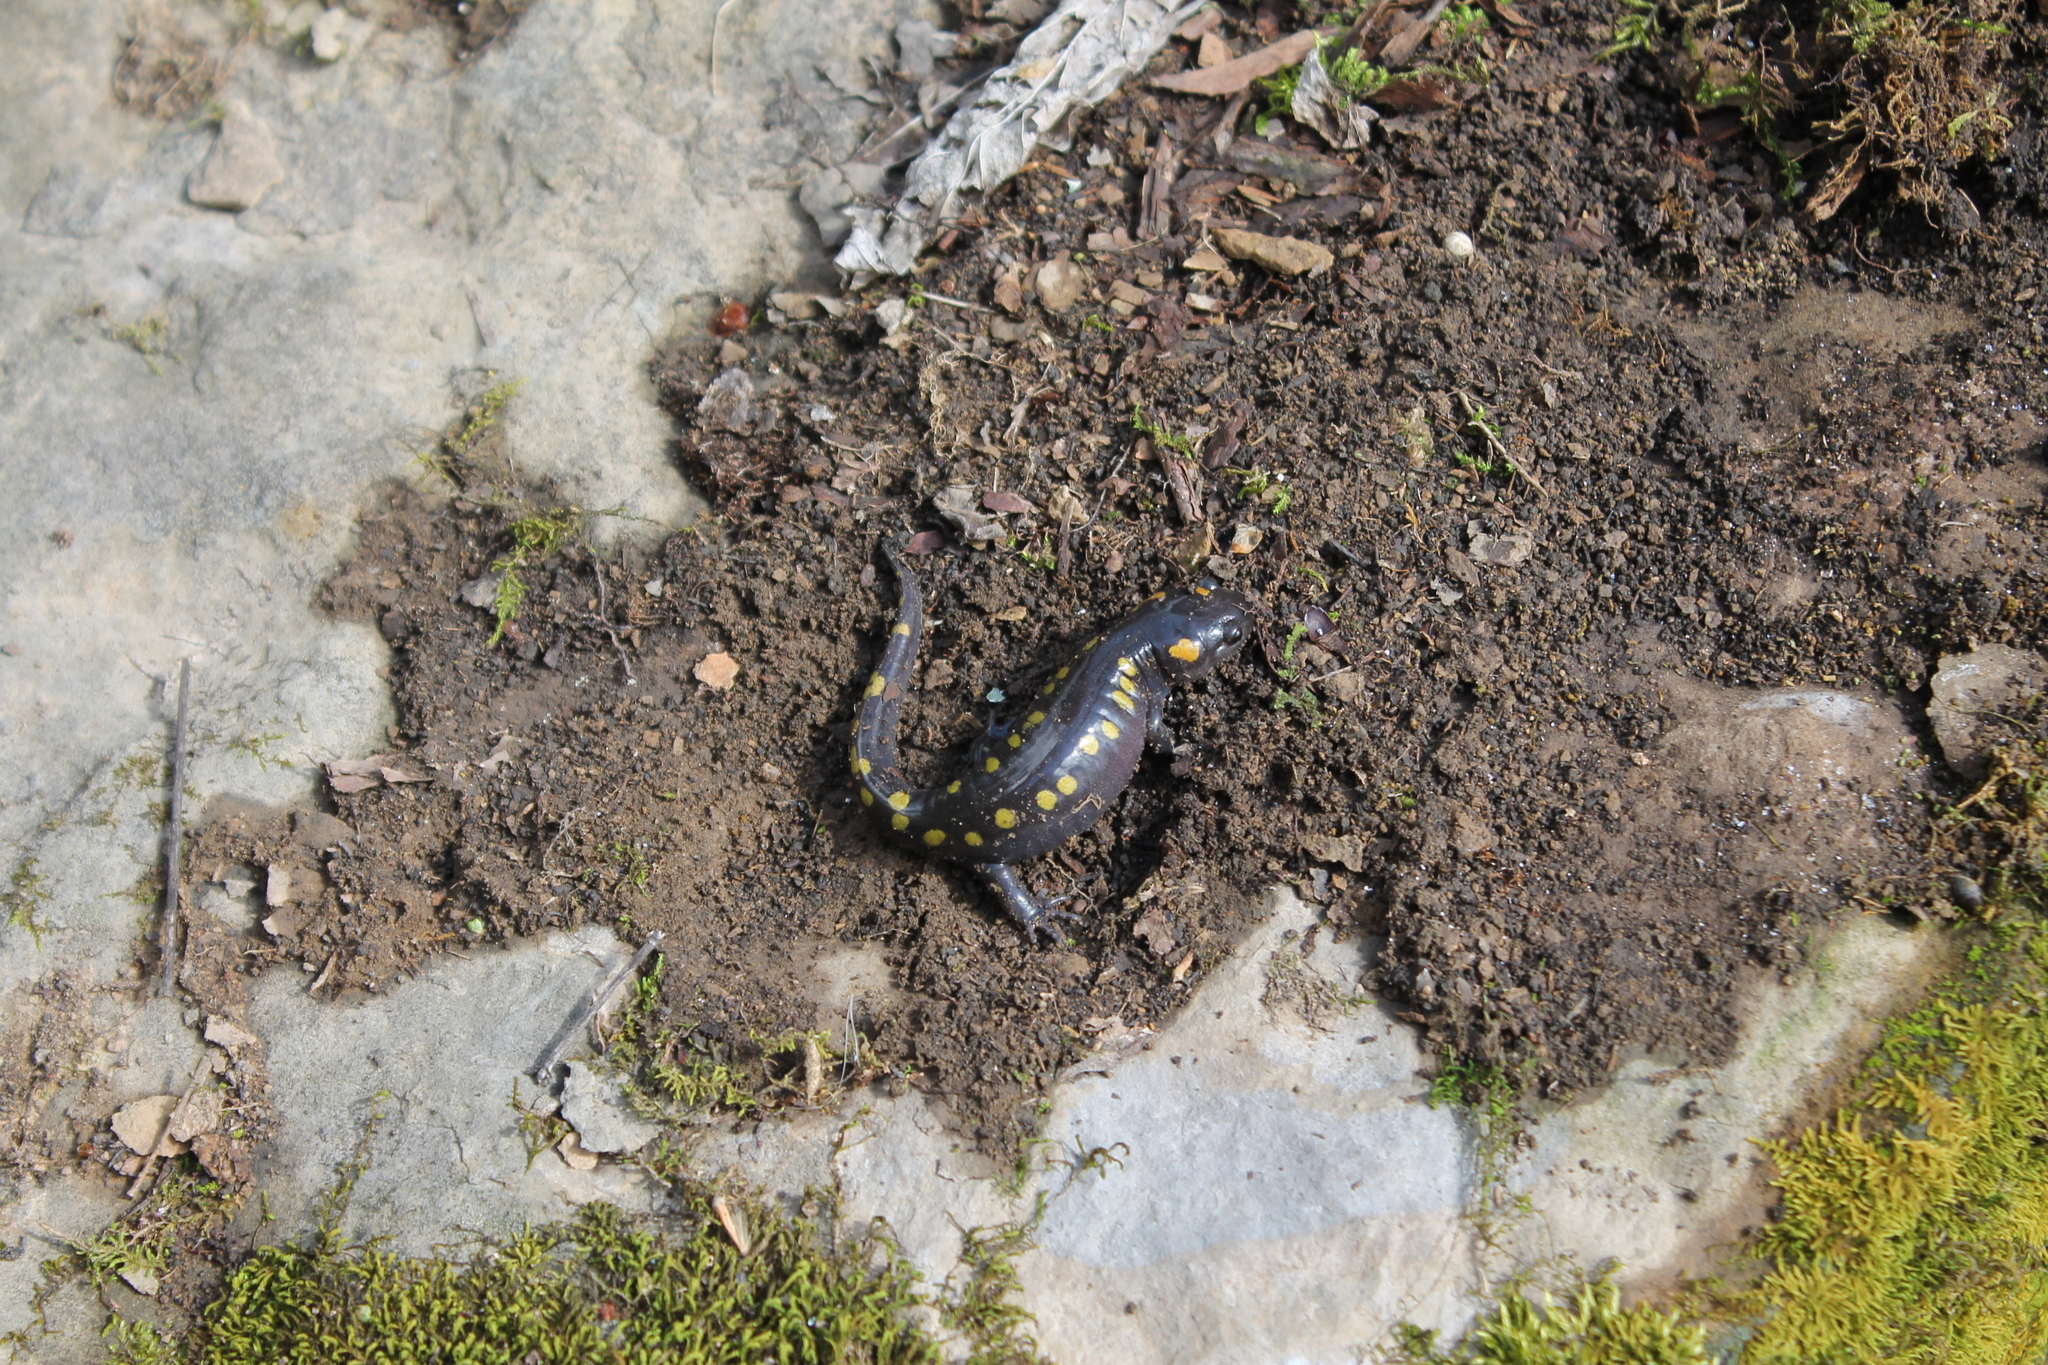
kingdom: Animalia
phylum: Chordata
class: Amphibia
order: Caudata
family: Ambystomatidae
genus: Ambystoma
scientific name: Ambystoma maculatum
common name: Spotted salamander
